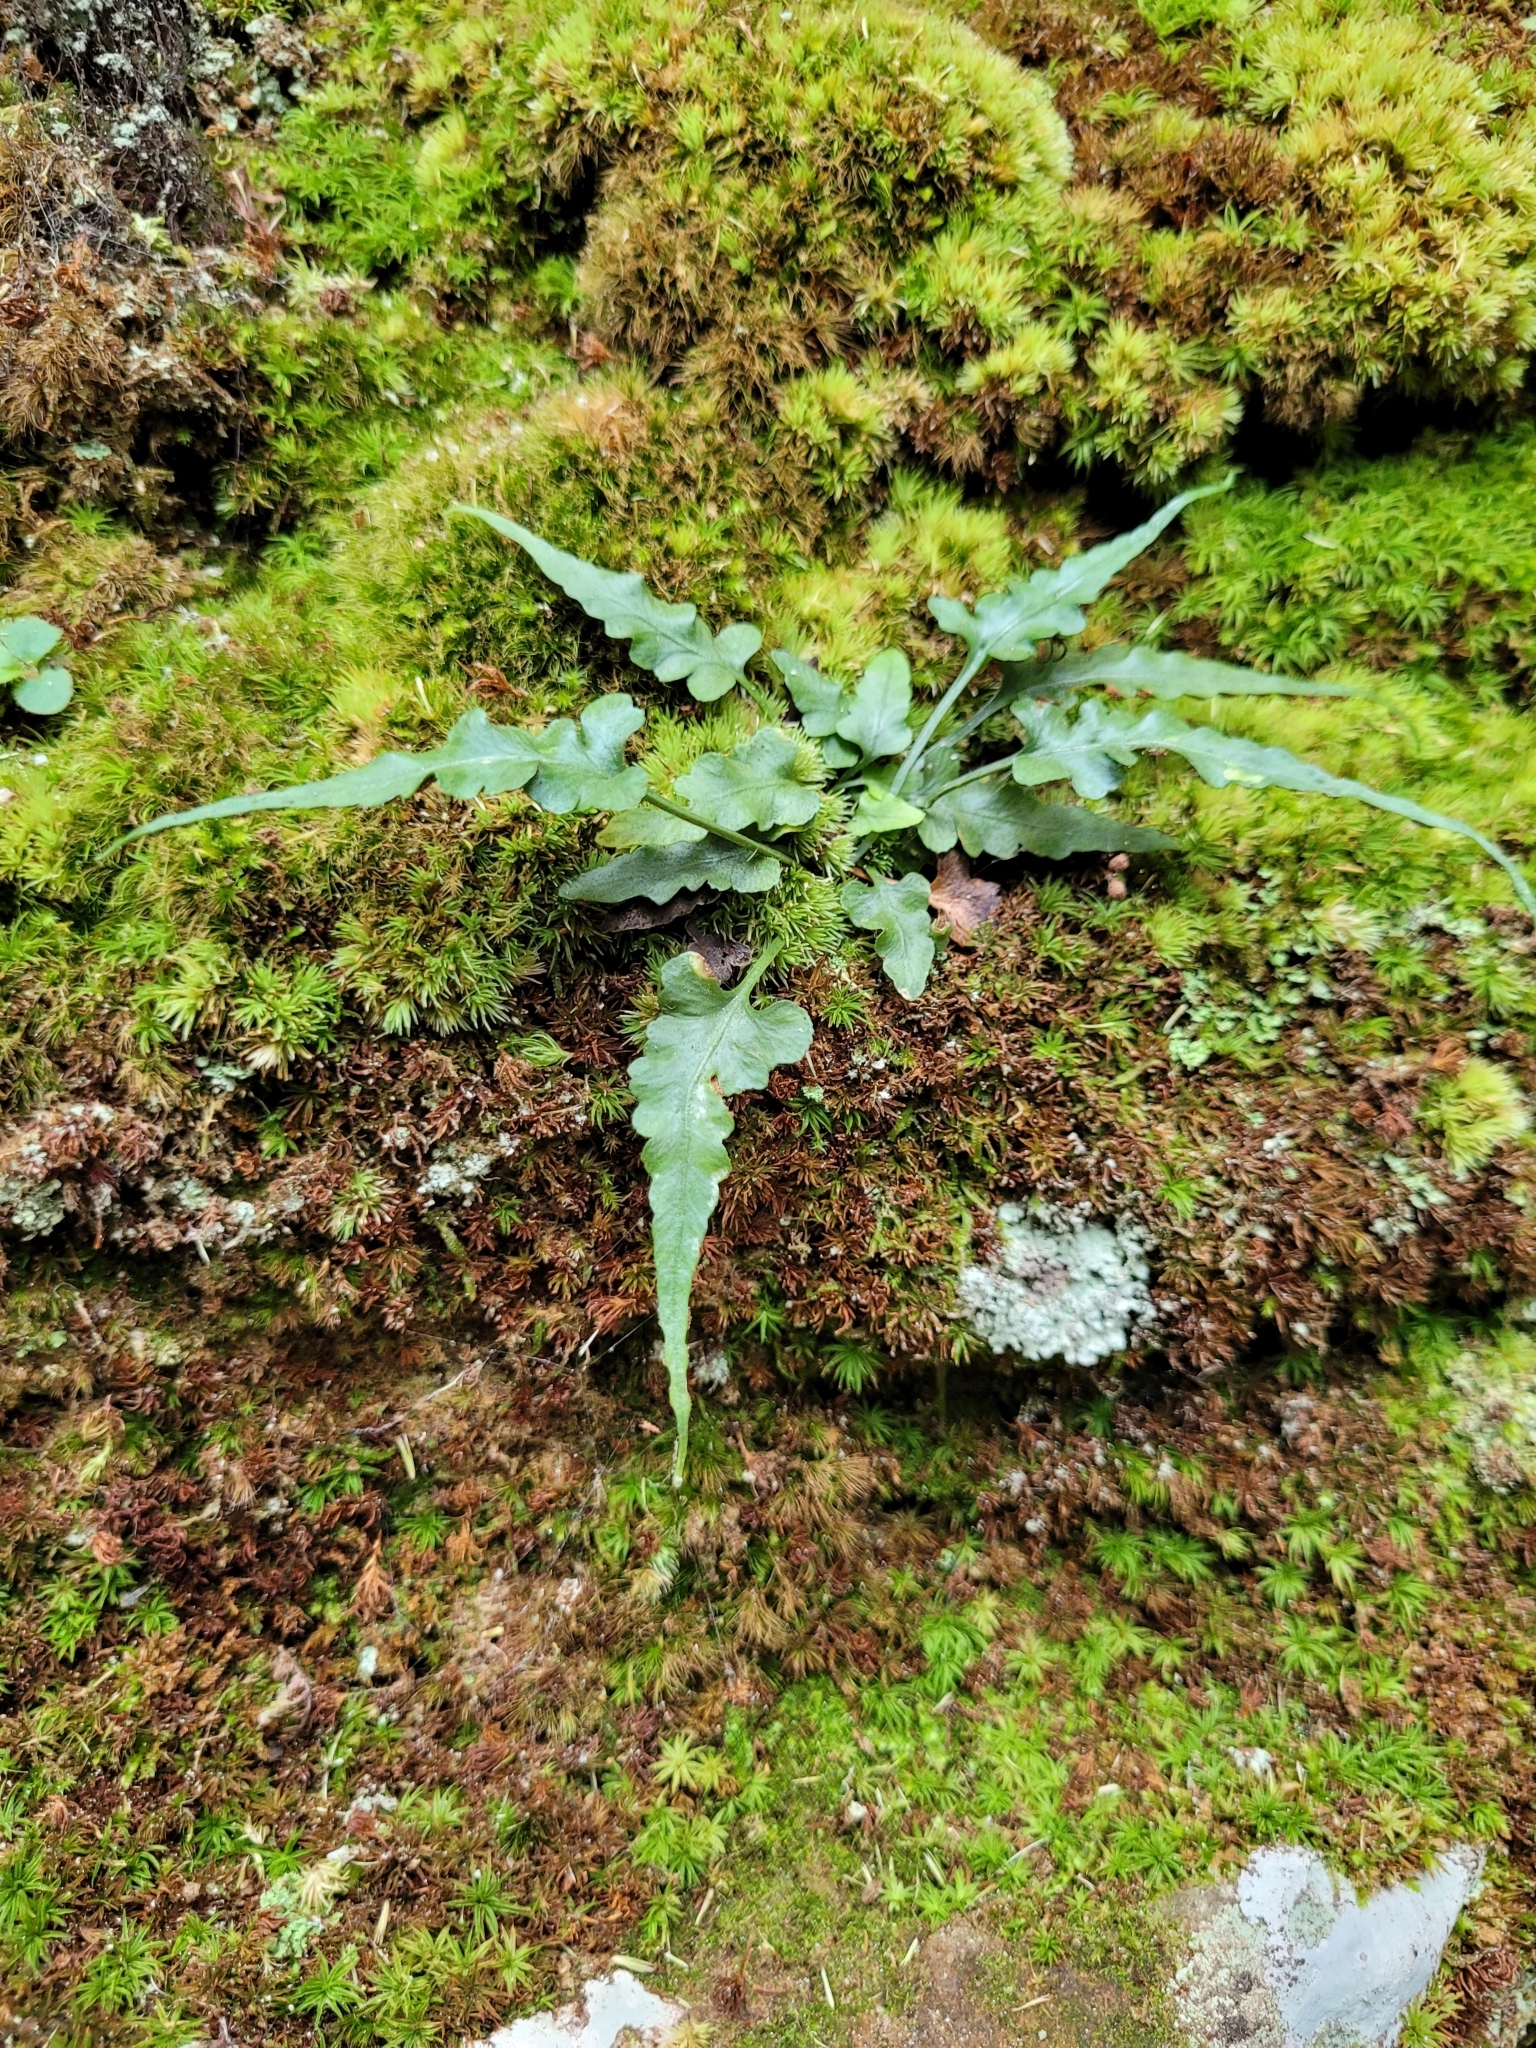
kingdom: Plantae
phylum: Tracheophyta
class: Polypodiopsida
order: Polypodiales
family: Aspleniaceae
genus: Asplenium
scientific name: Asplenium pinnatifidum
